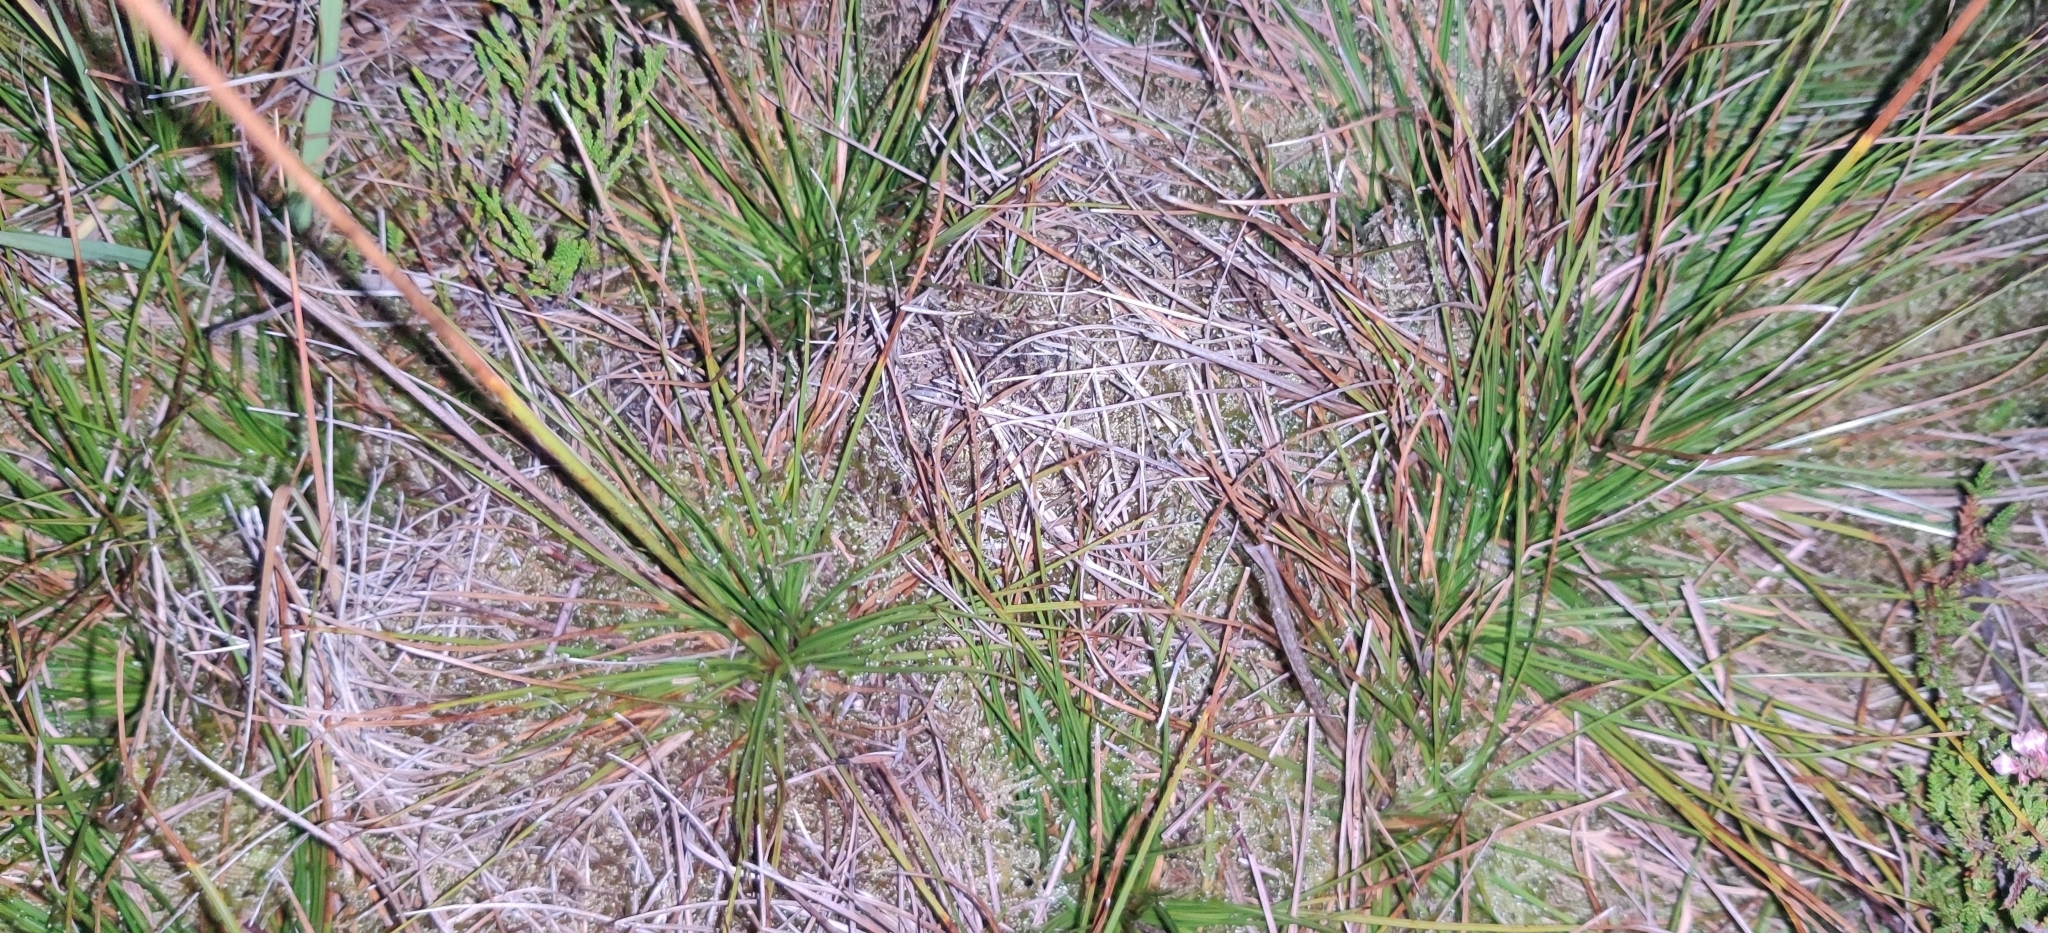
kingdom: Plantae
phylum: Tracheophyta
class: Liliopsida
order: Poales
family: Juncaceae
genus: Juncus
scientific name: Juncus squarrosus
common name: Heath rush
